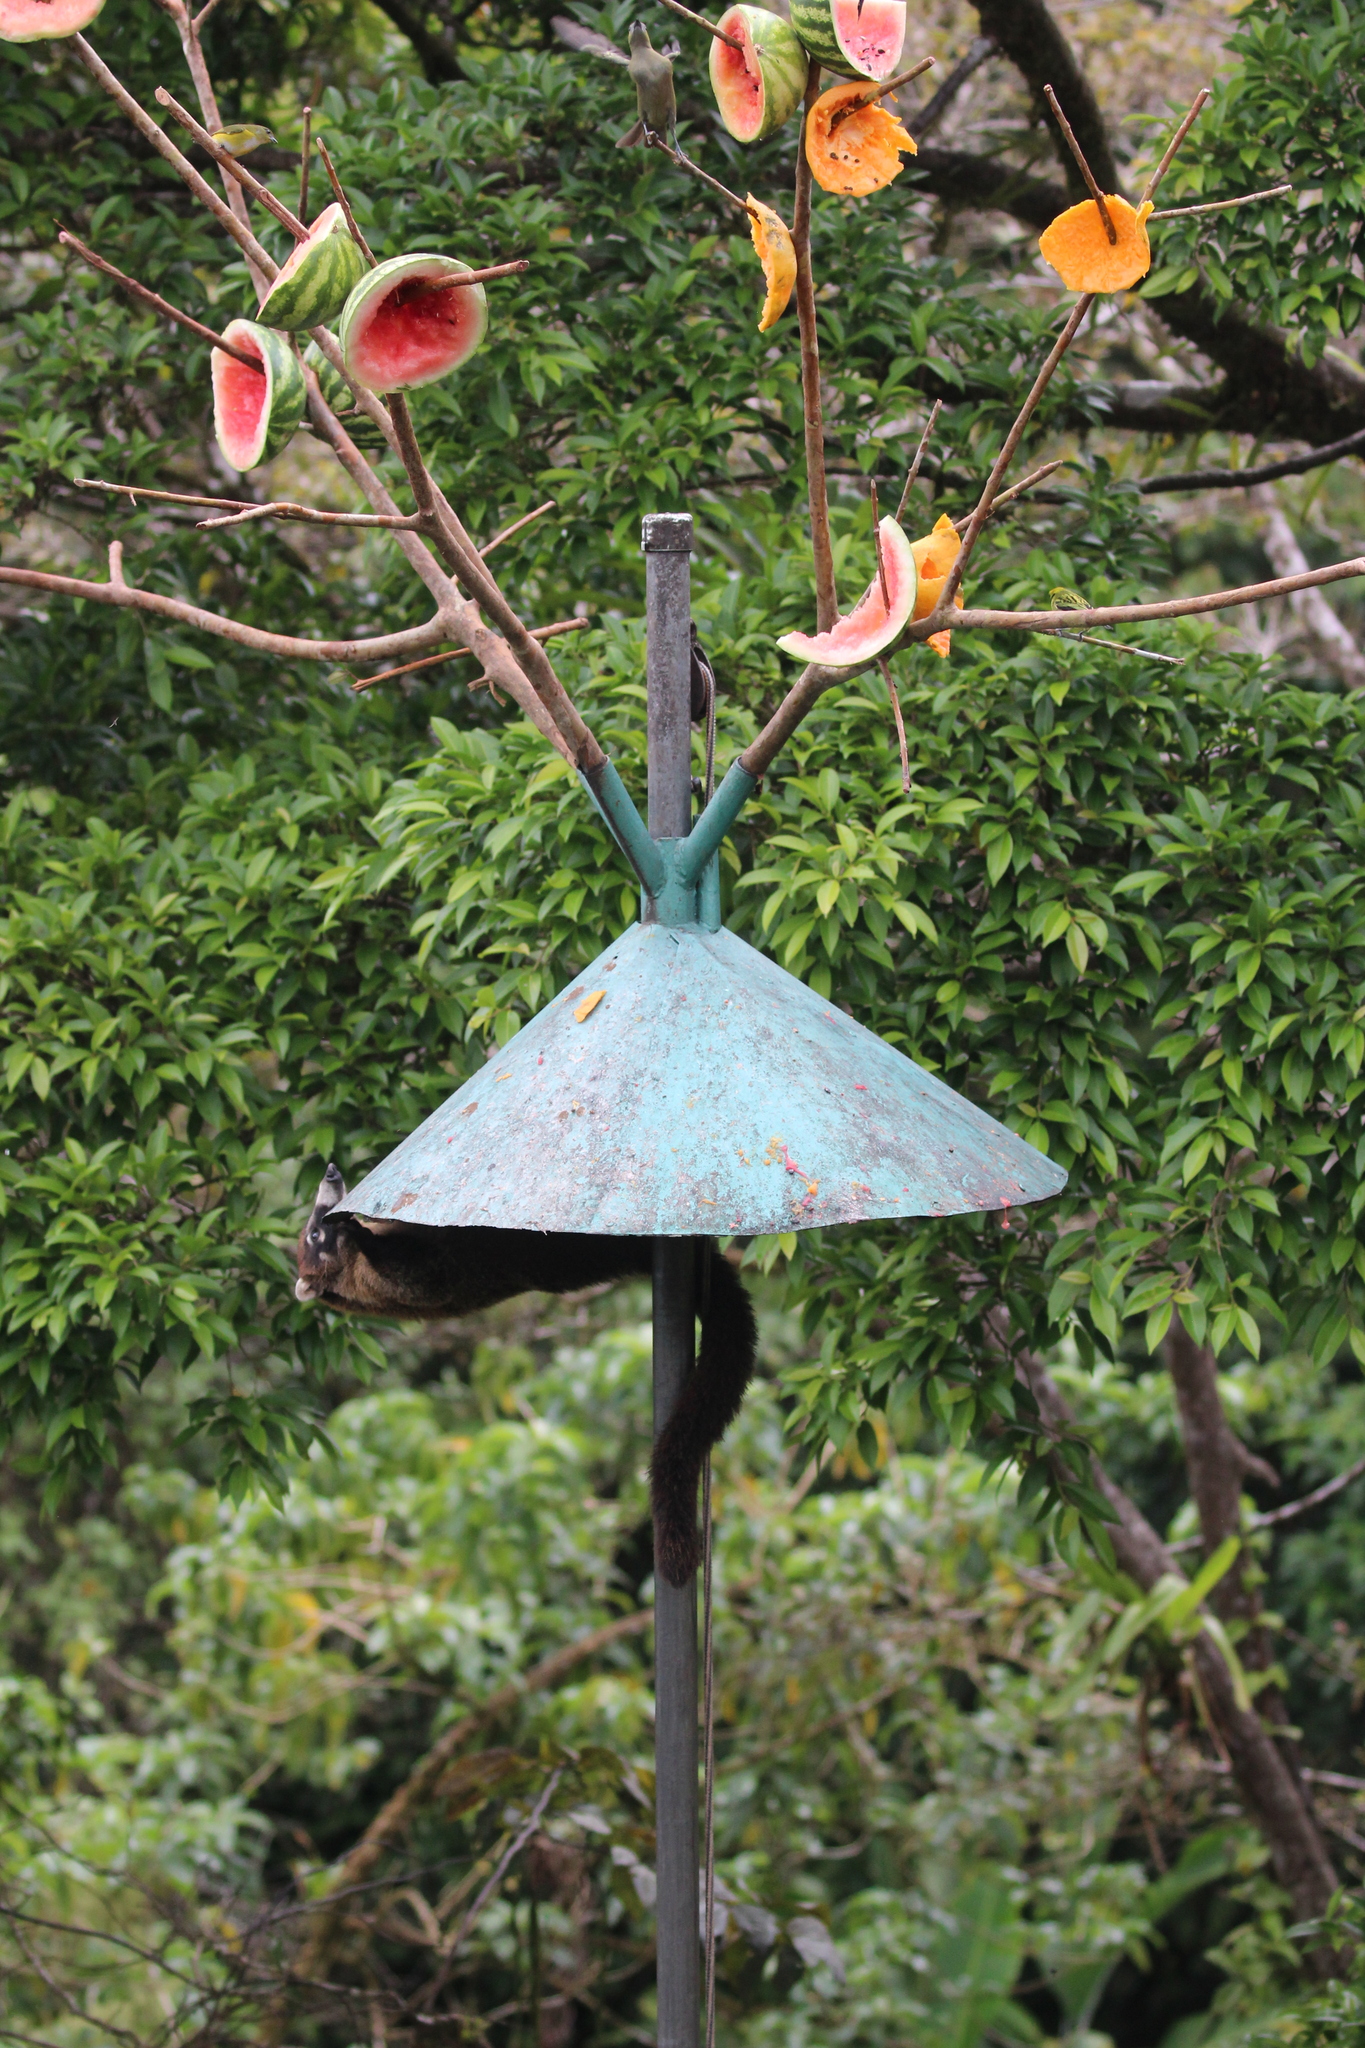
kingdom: Animalia
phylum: Chordata
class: Mammalia
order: Carnivora
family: Procyonidae
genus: Nasua
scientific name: Nasua narica
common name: White-nosed coati
